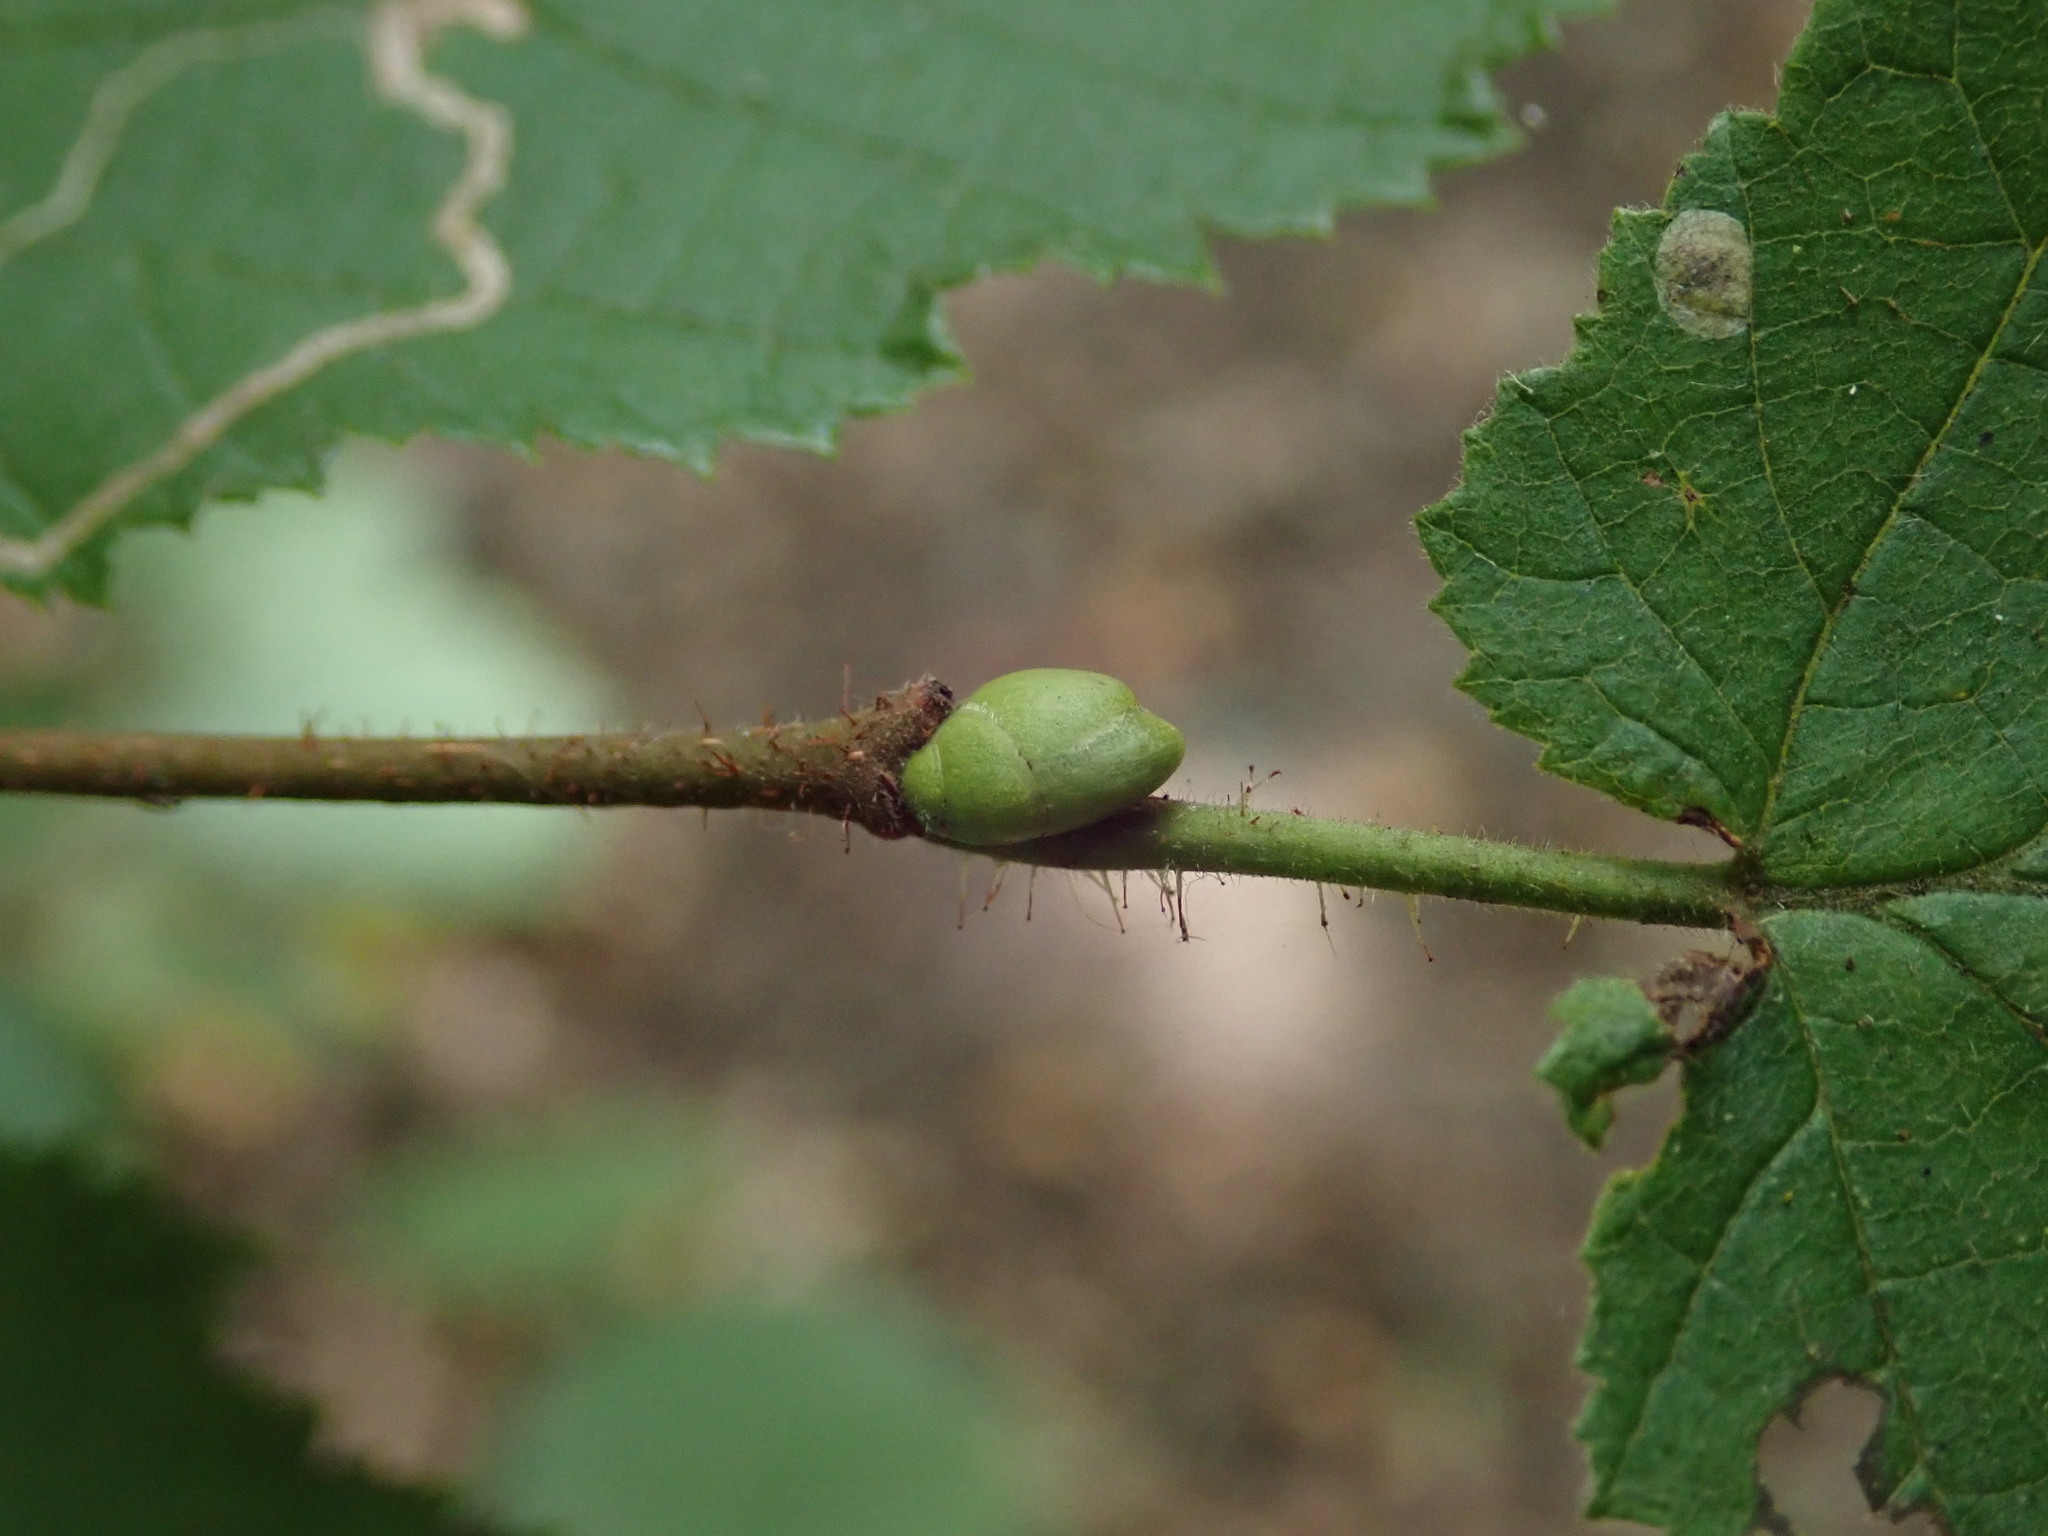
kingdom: Plantae
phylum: Tracheophyta
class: Magnoliopsida
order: Fagales
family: Betulaceae
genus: Corylus
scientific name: Corylus avellana
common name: European hazel
